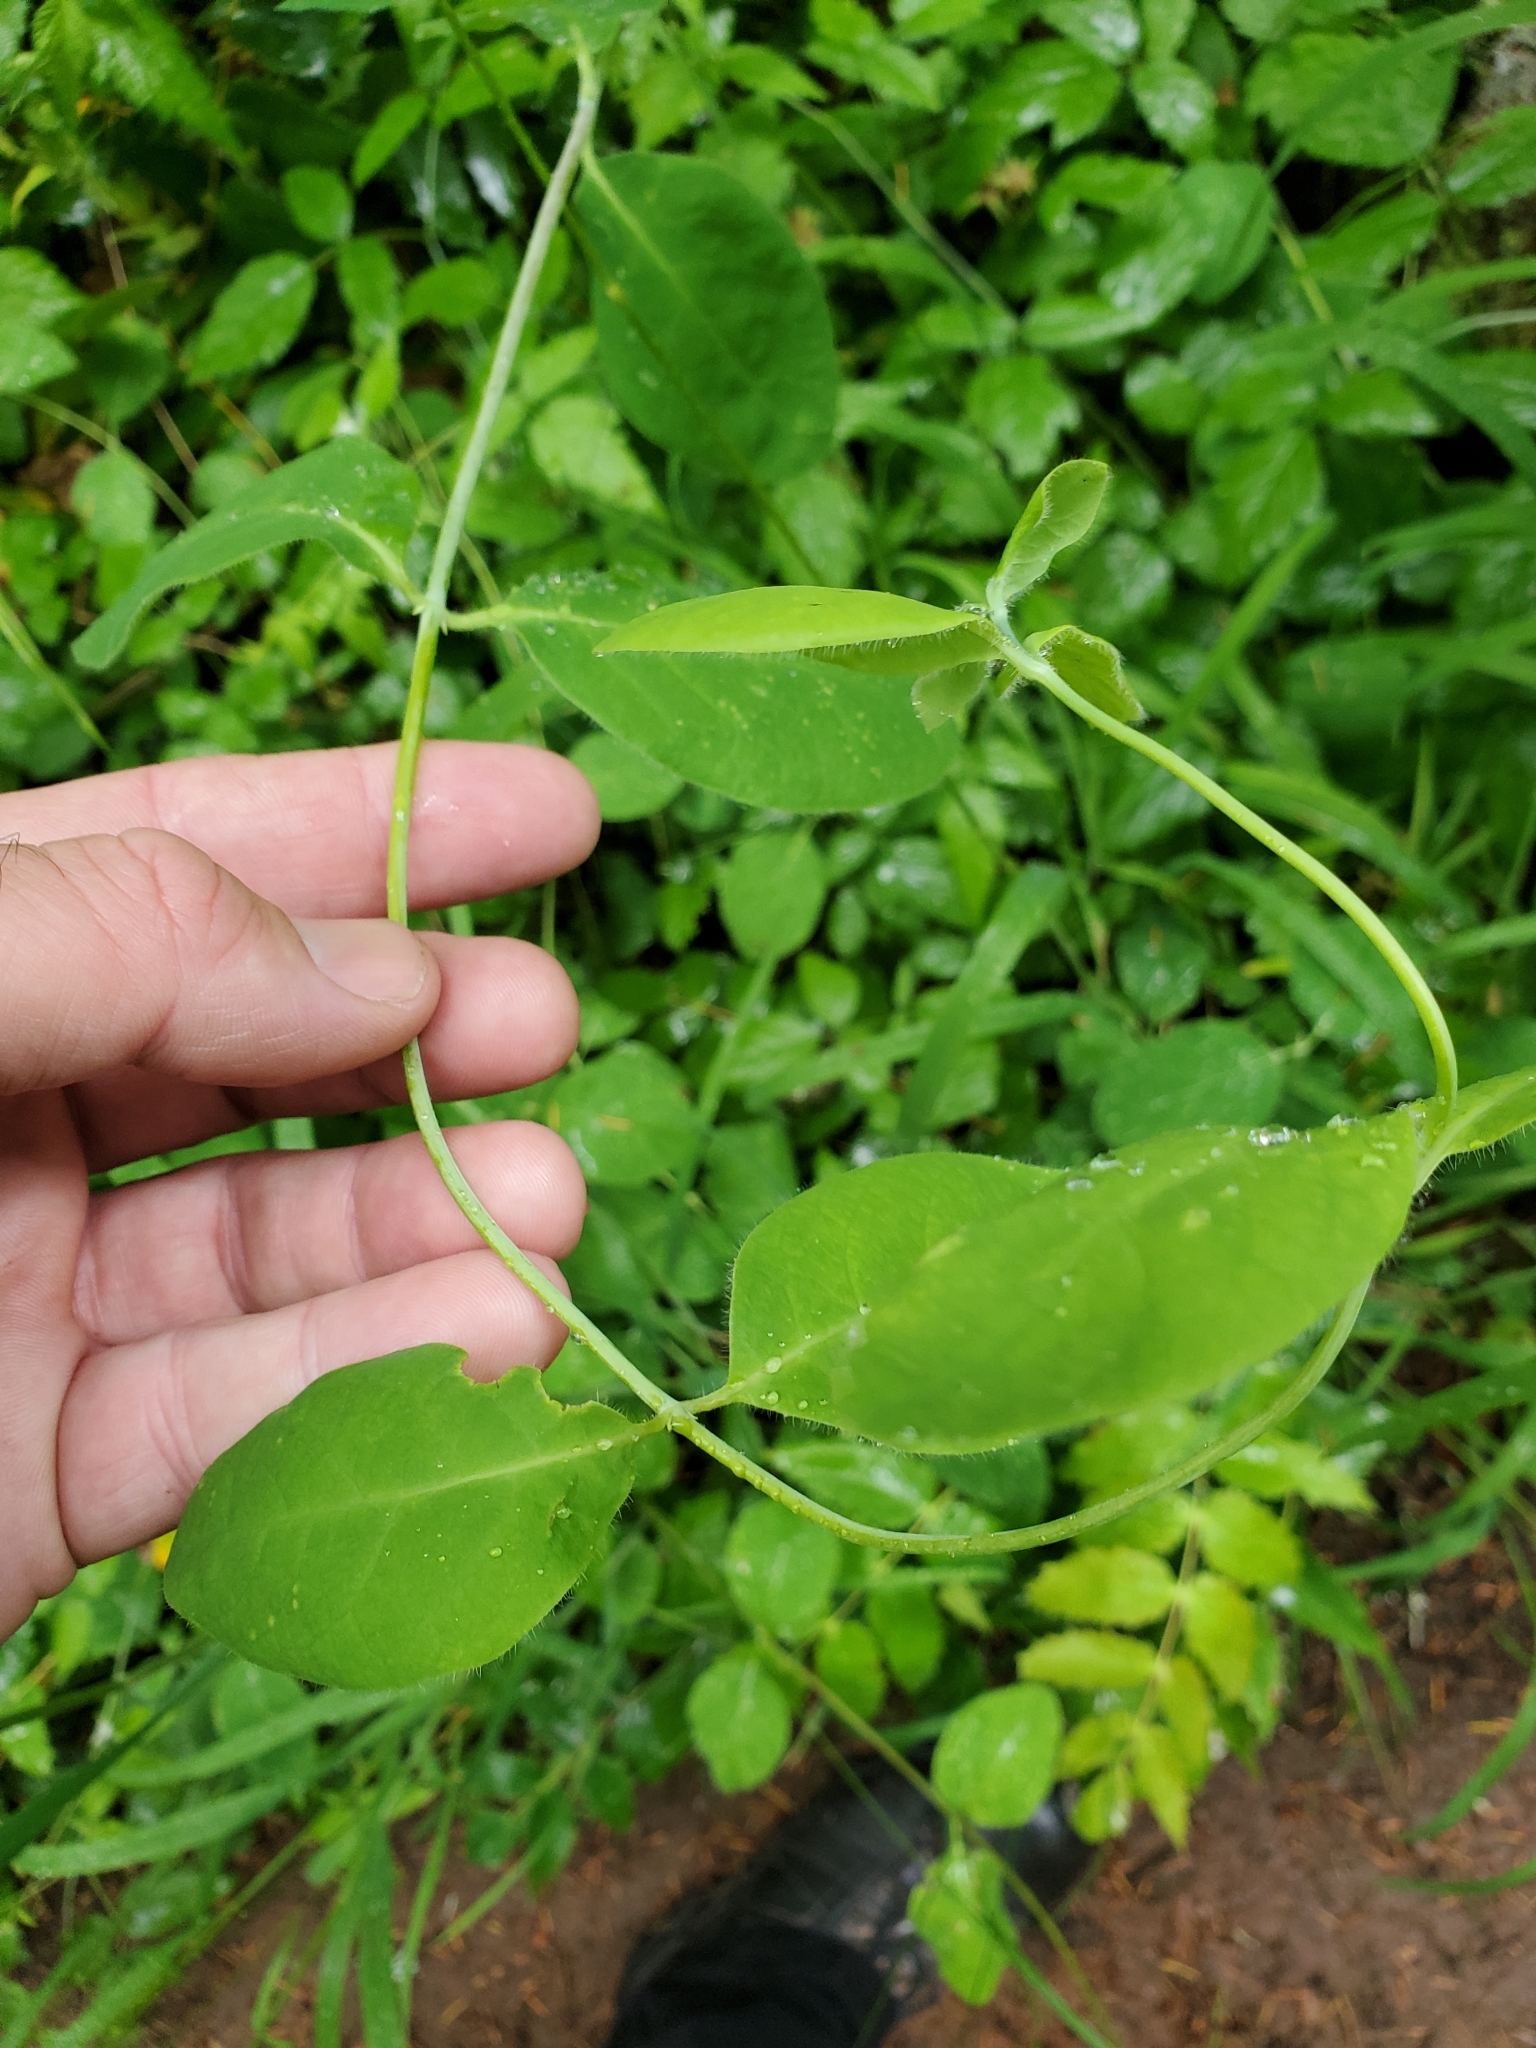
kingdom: Plantae
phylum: Tracheophyta
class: Magnoliopsida
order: Dipsacales
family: Caprifoliaceae
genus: Lonicera
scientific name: Lonicera ciliosa
